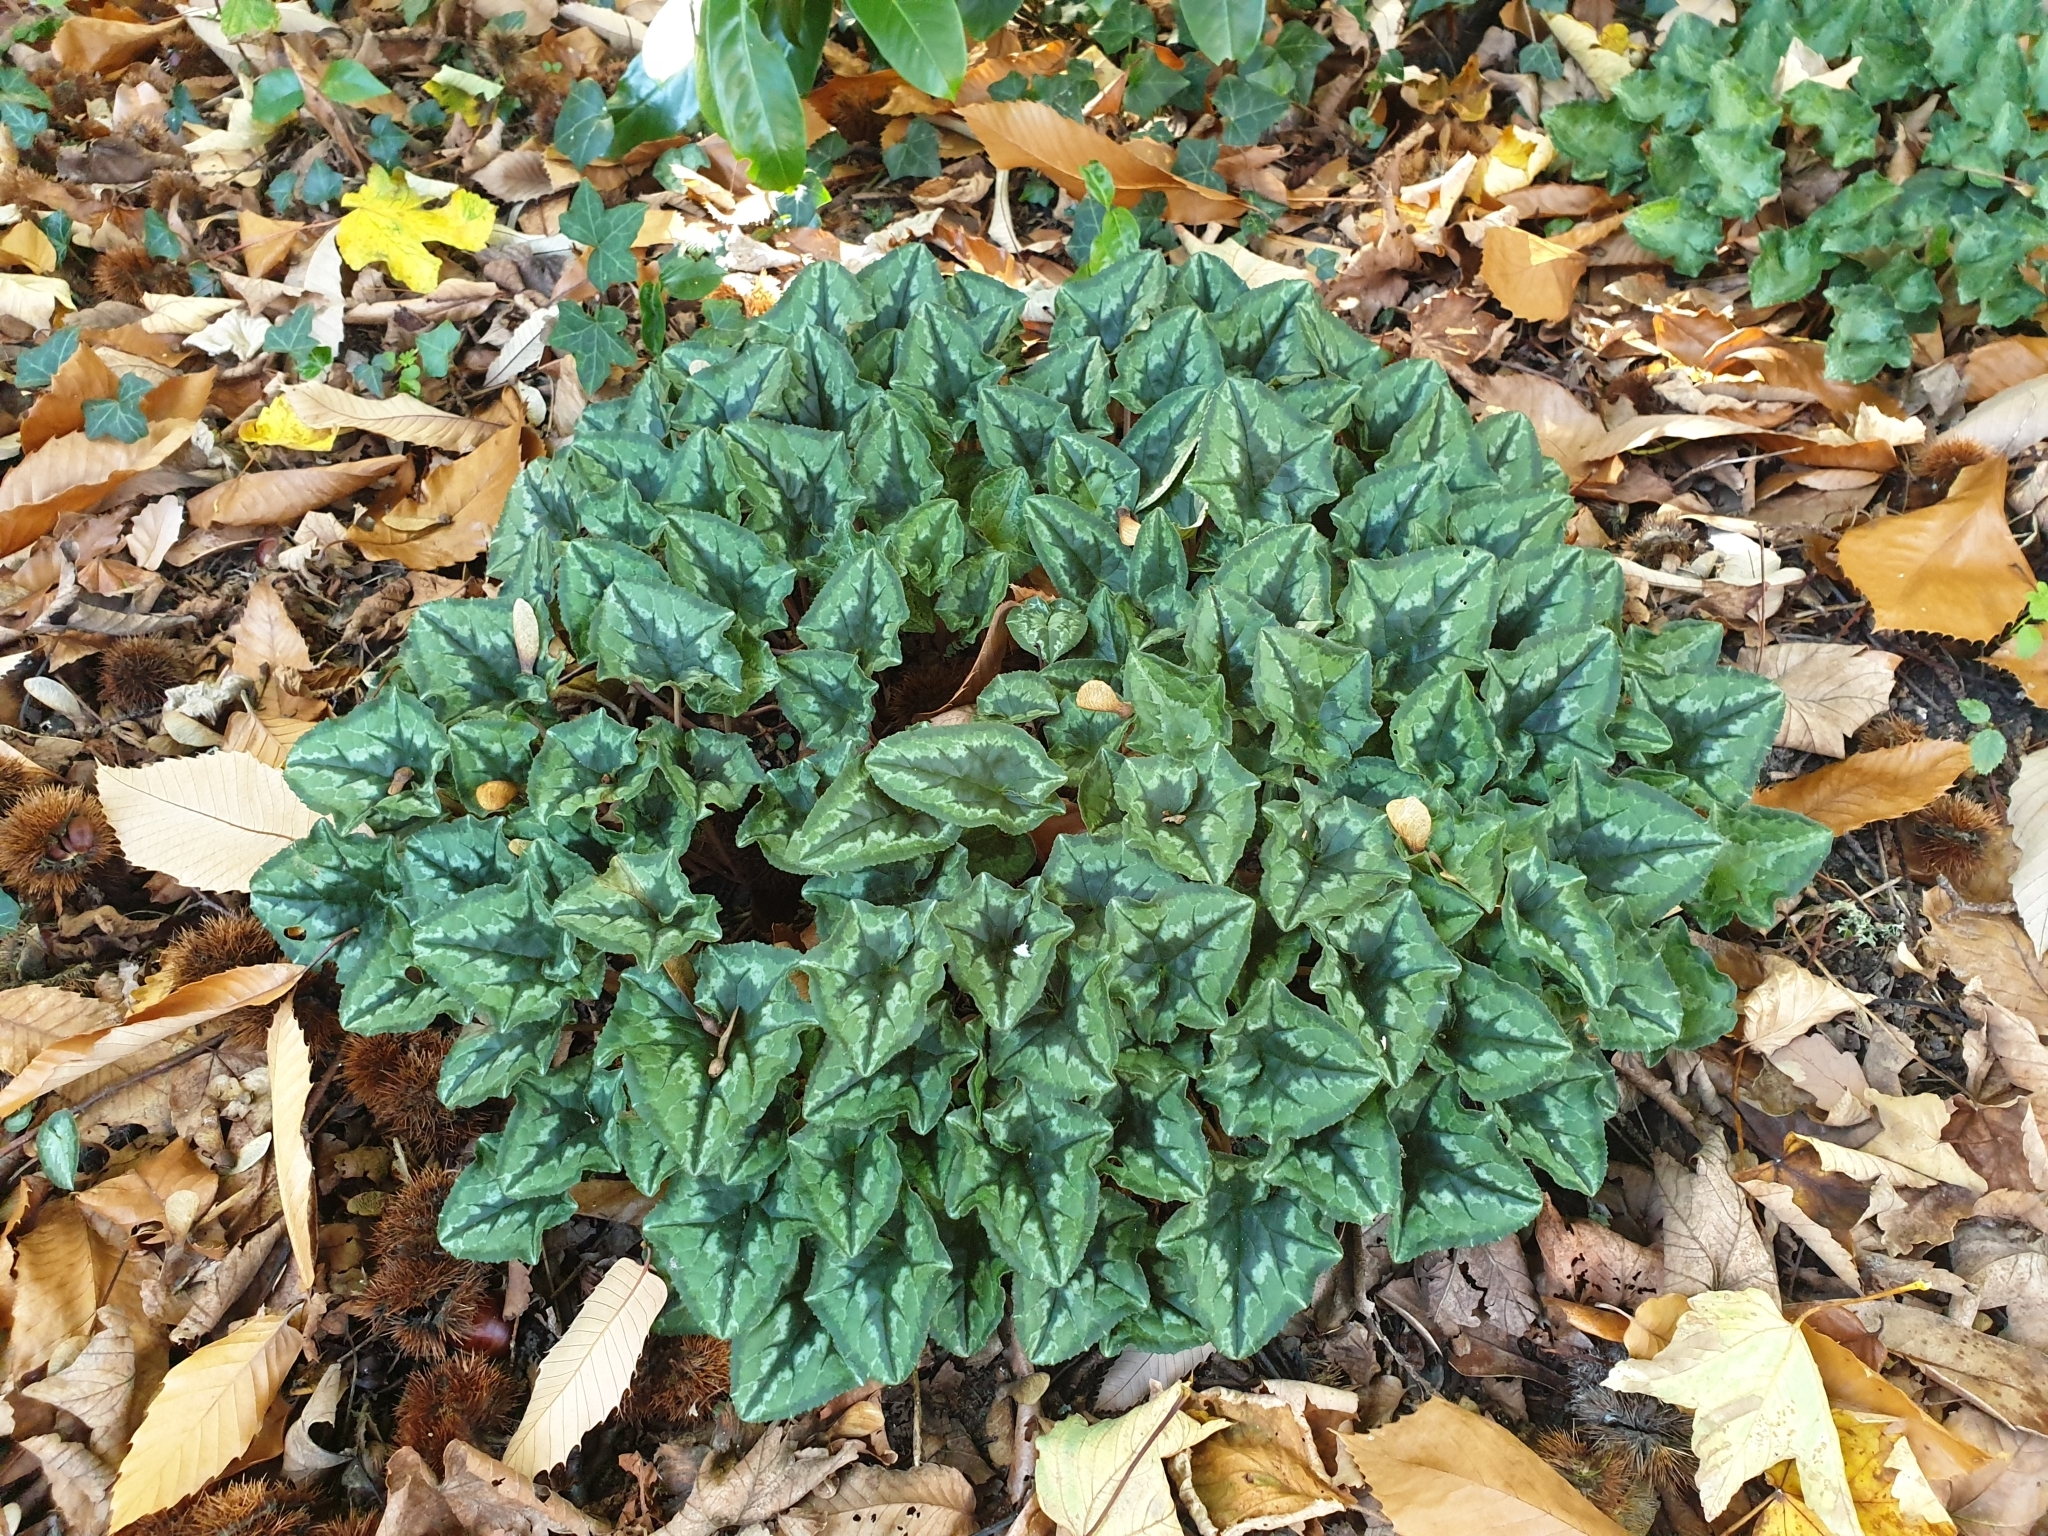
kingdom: Plantae
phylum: Tracheophyta
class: Magnoliopsida
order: Ericales
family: Primulaceae
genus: Cyclamen
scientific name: Cyclamen hederifolium
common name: Sowbread
